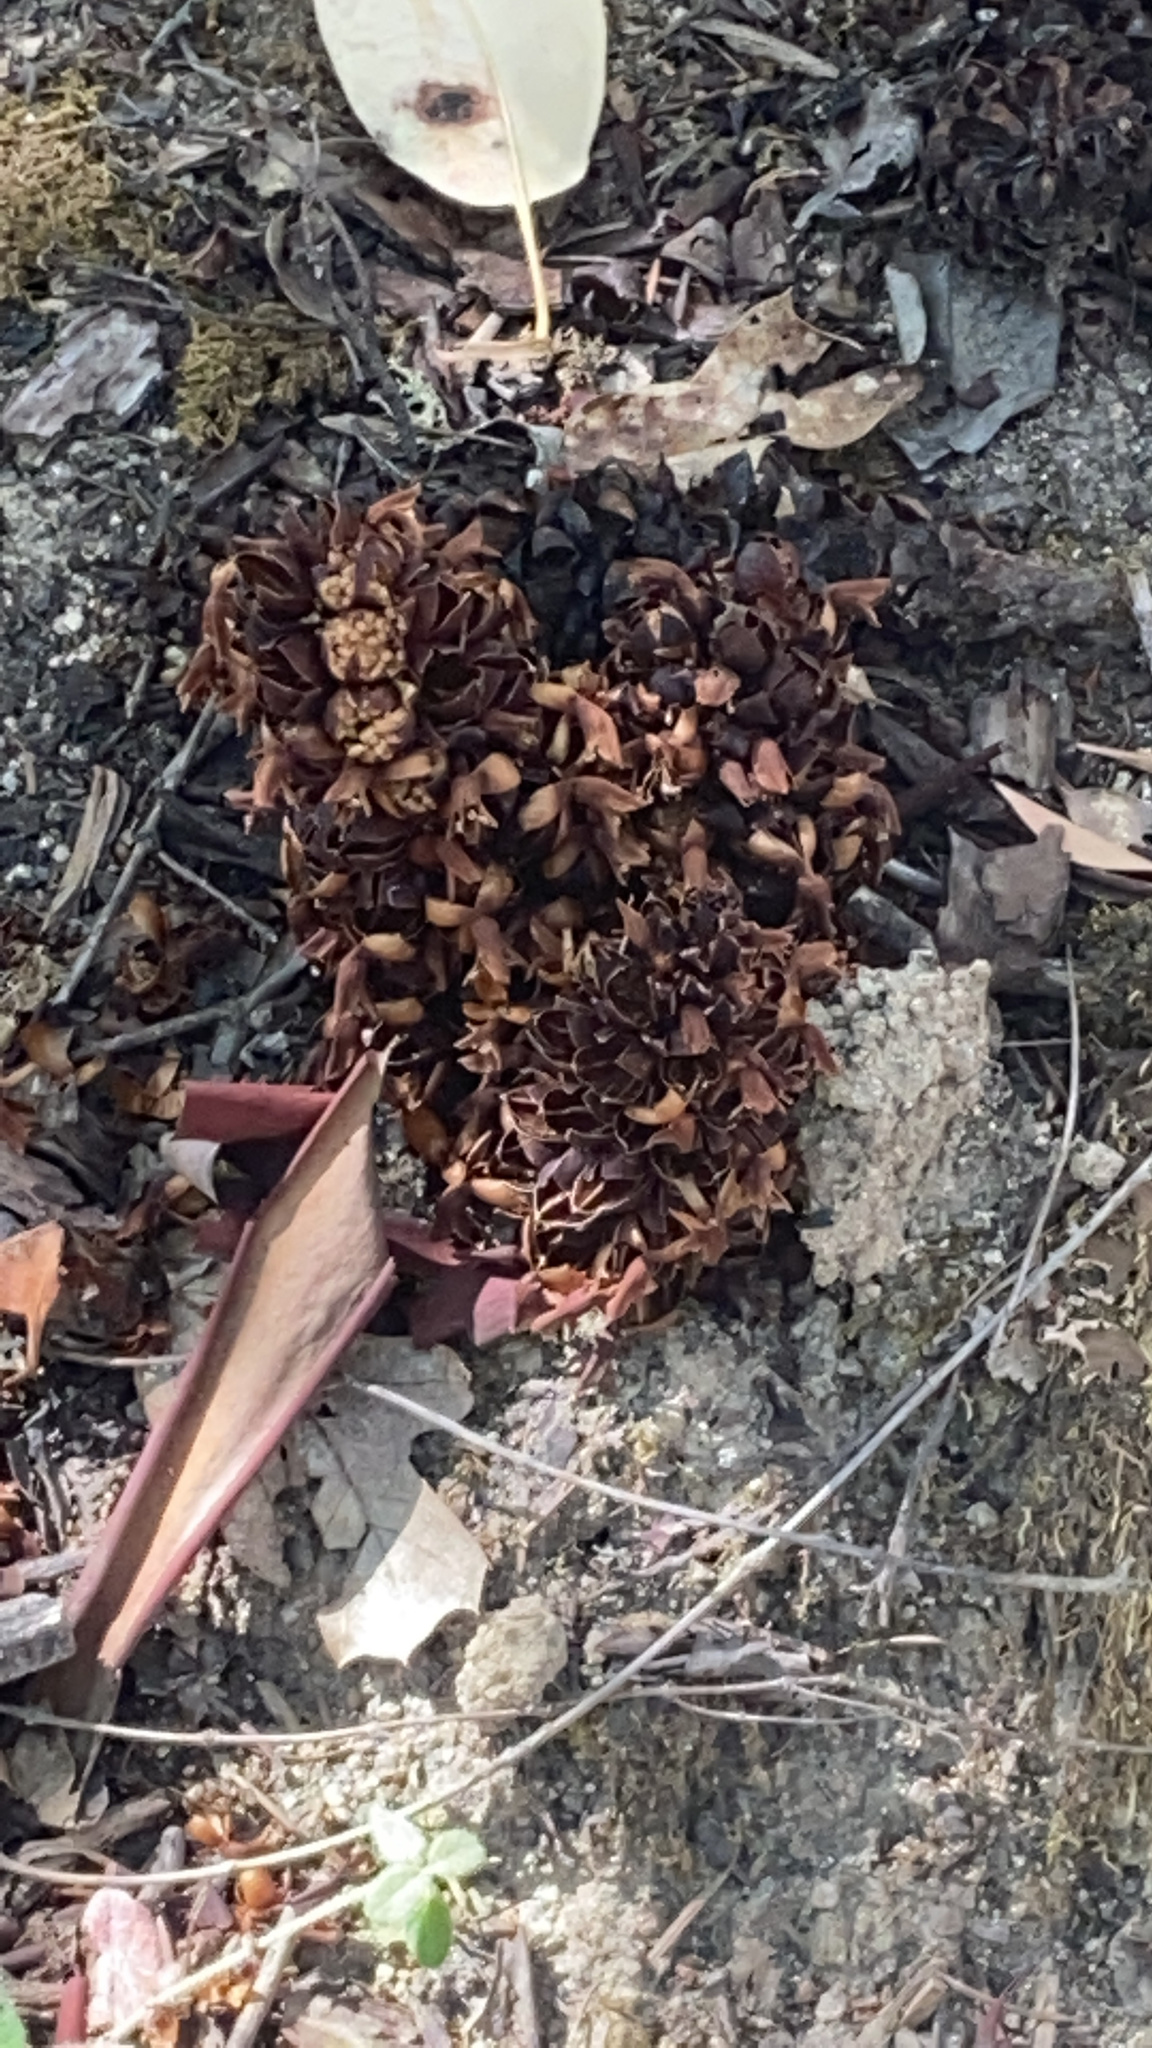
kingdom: Plantae
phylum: Tracheophyta
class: Magnoliopsida
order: Lamiales
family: Orobanchaceae
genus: Kopsiopsis
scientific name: Kopsiopsis strobilacea
